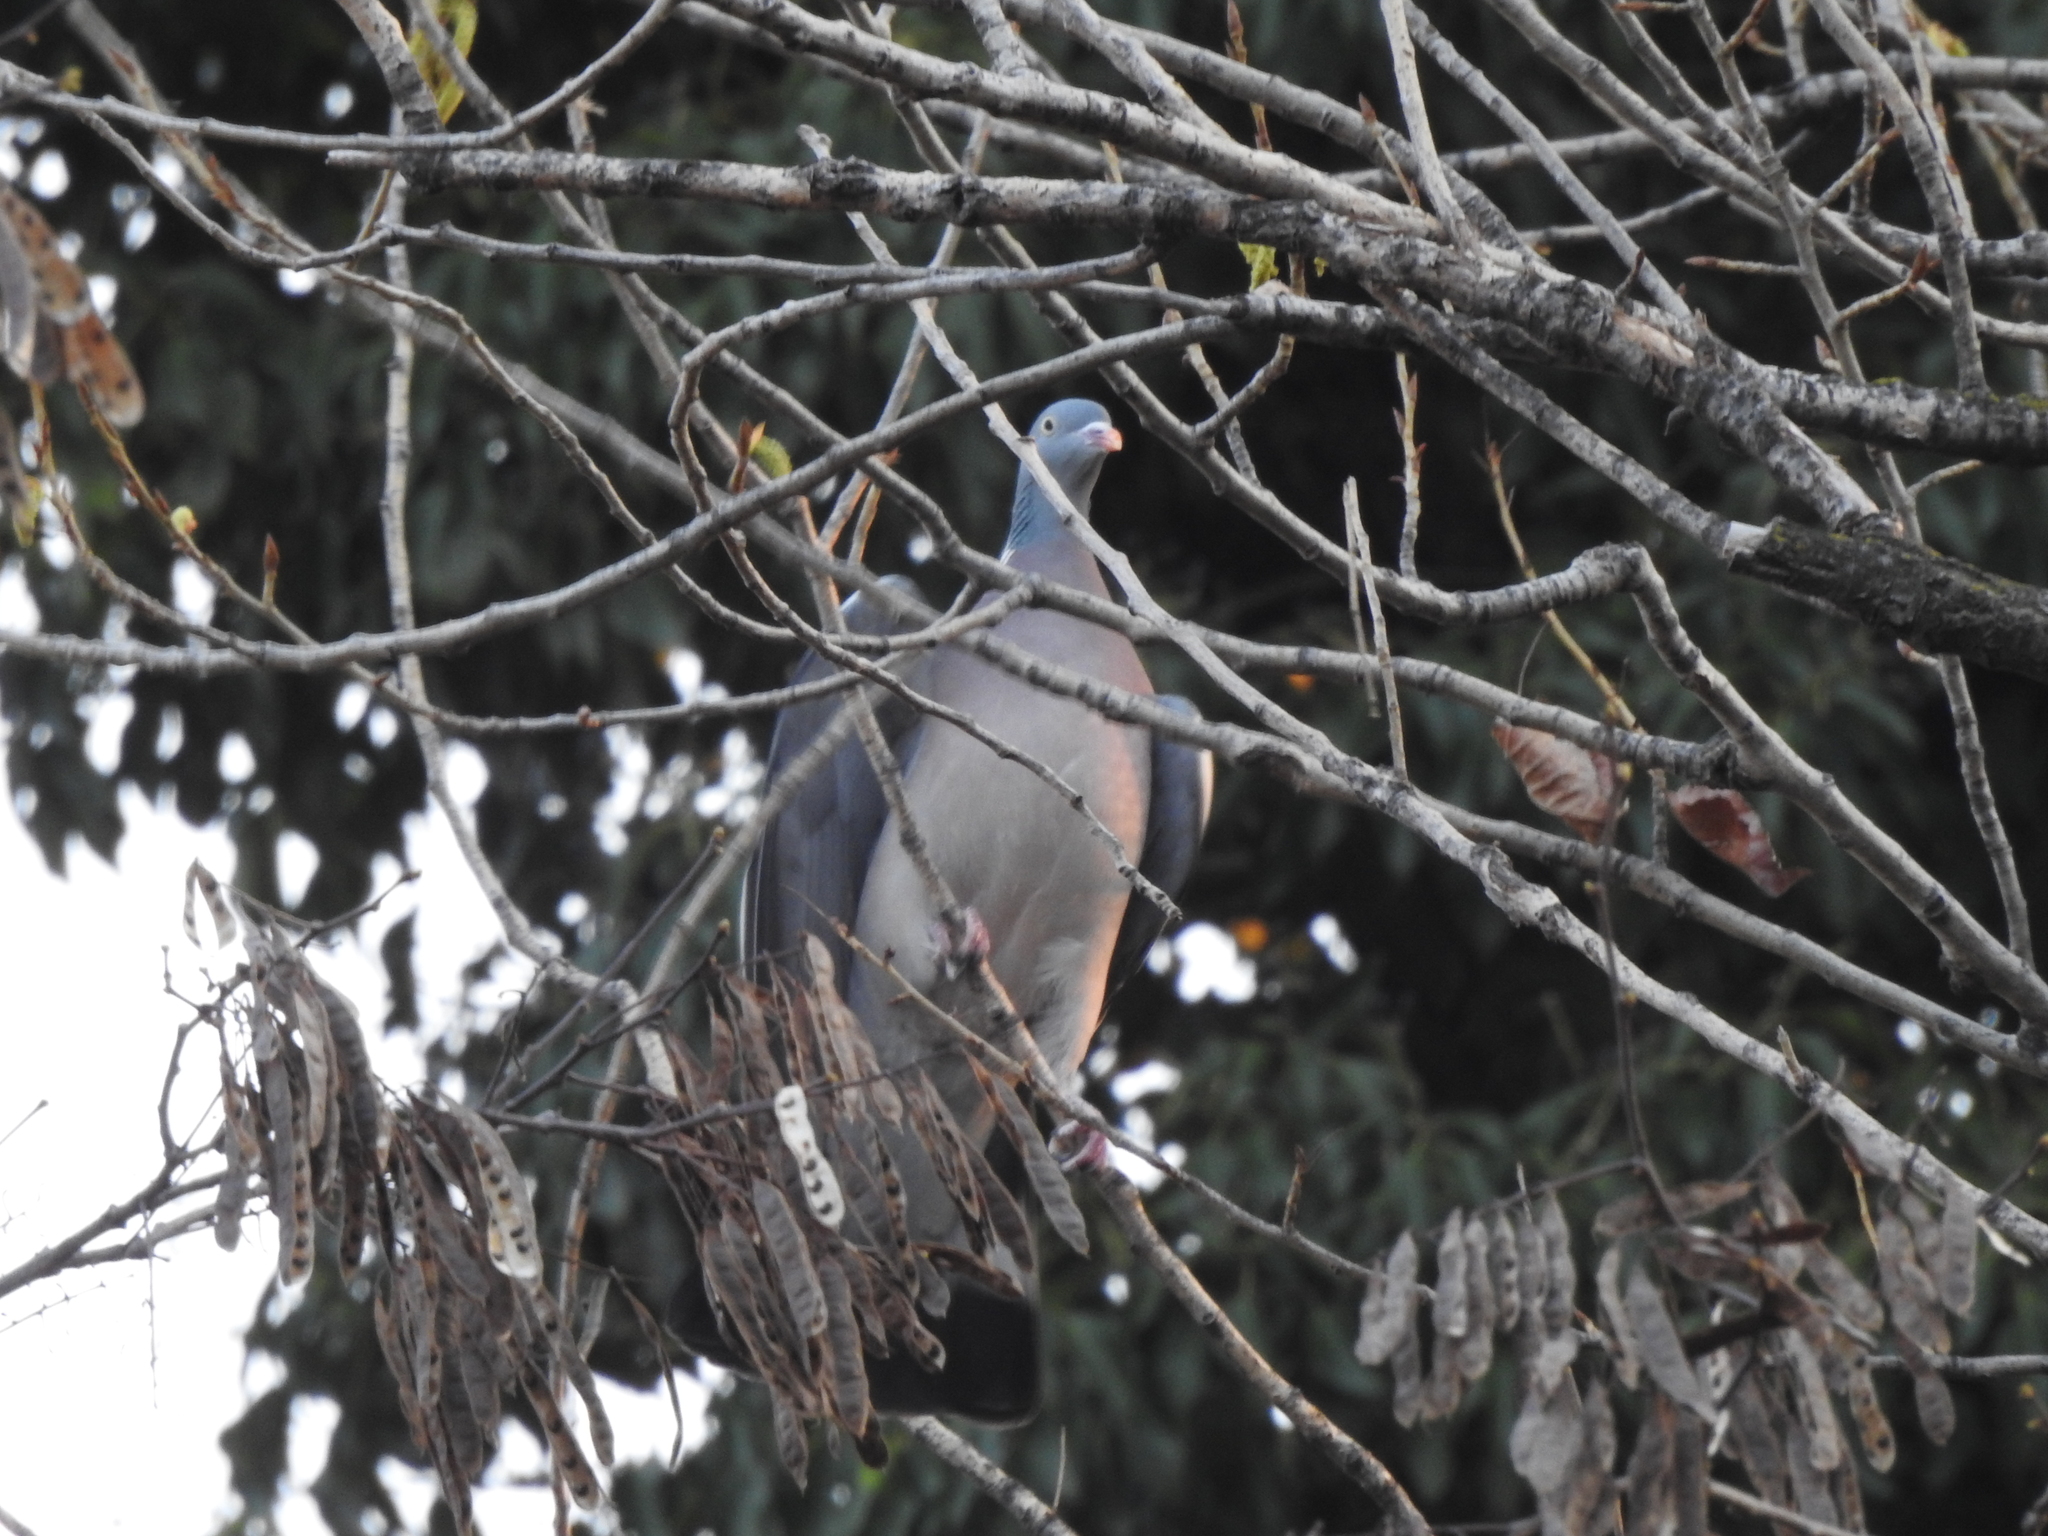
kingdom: Animalia
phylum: Chordata
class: Aves
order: Columbiformes
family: Columbidae
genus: Columba
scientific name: Columba palumbus
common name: Common wood pigeon
